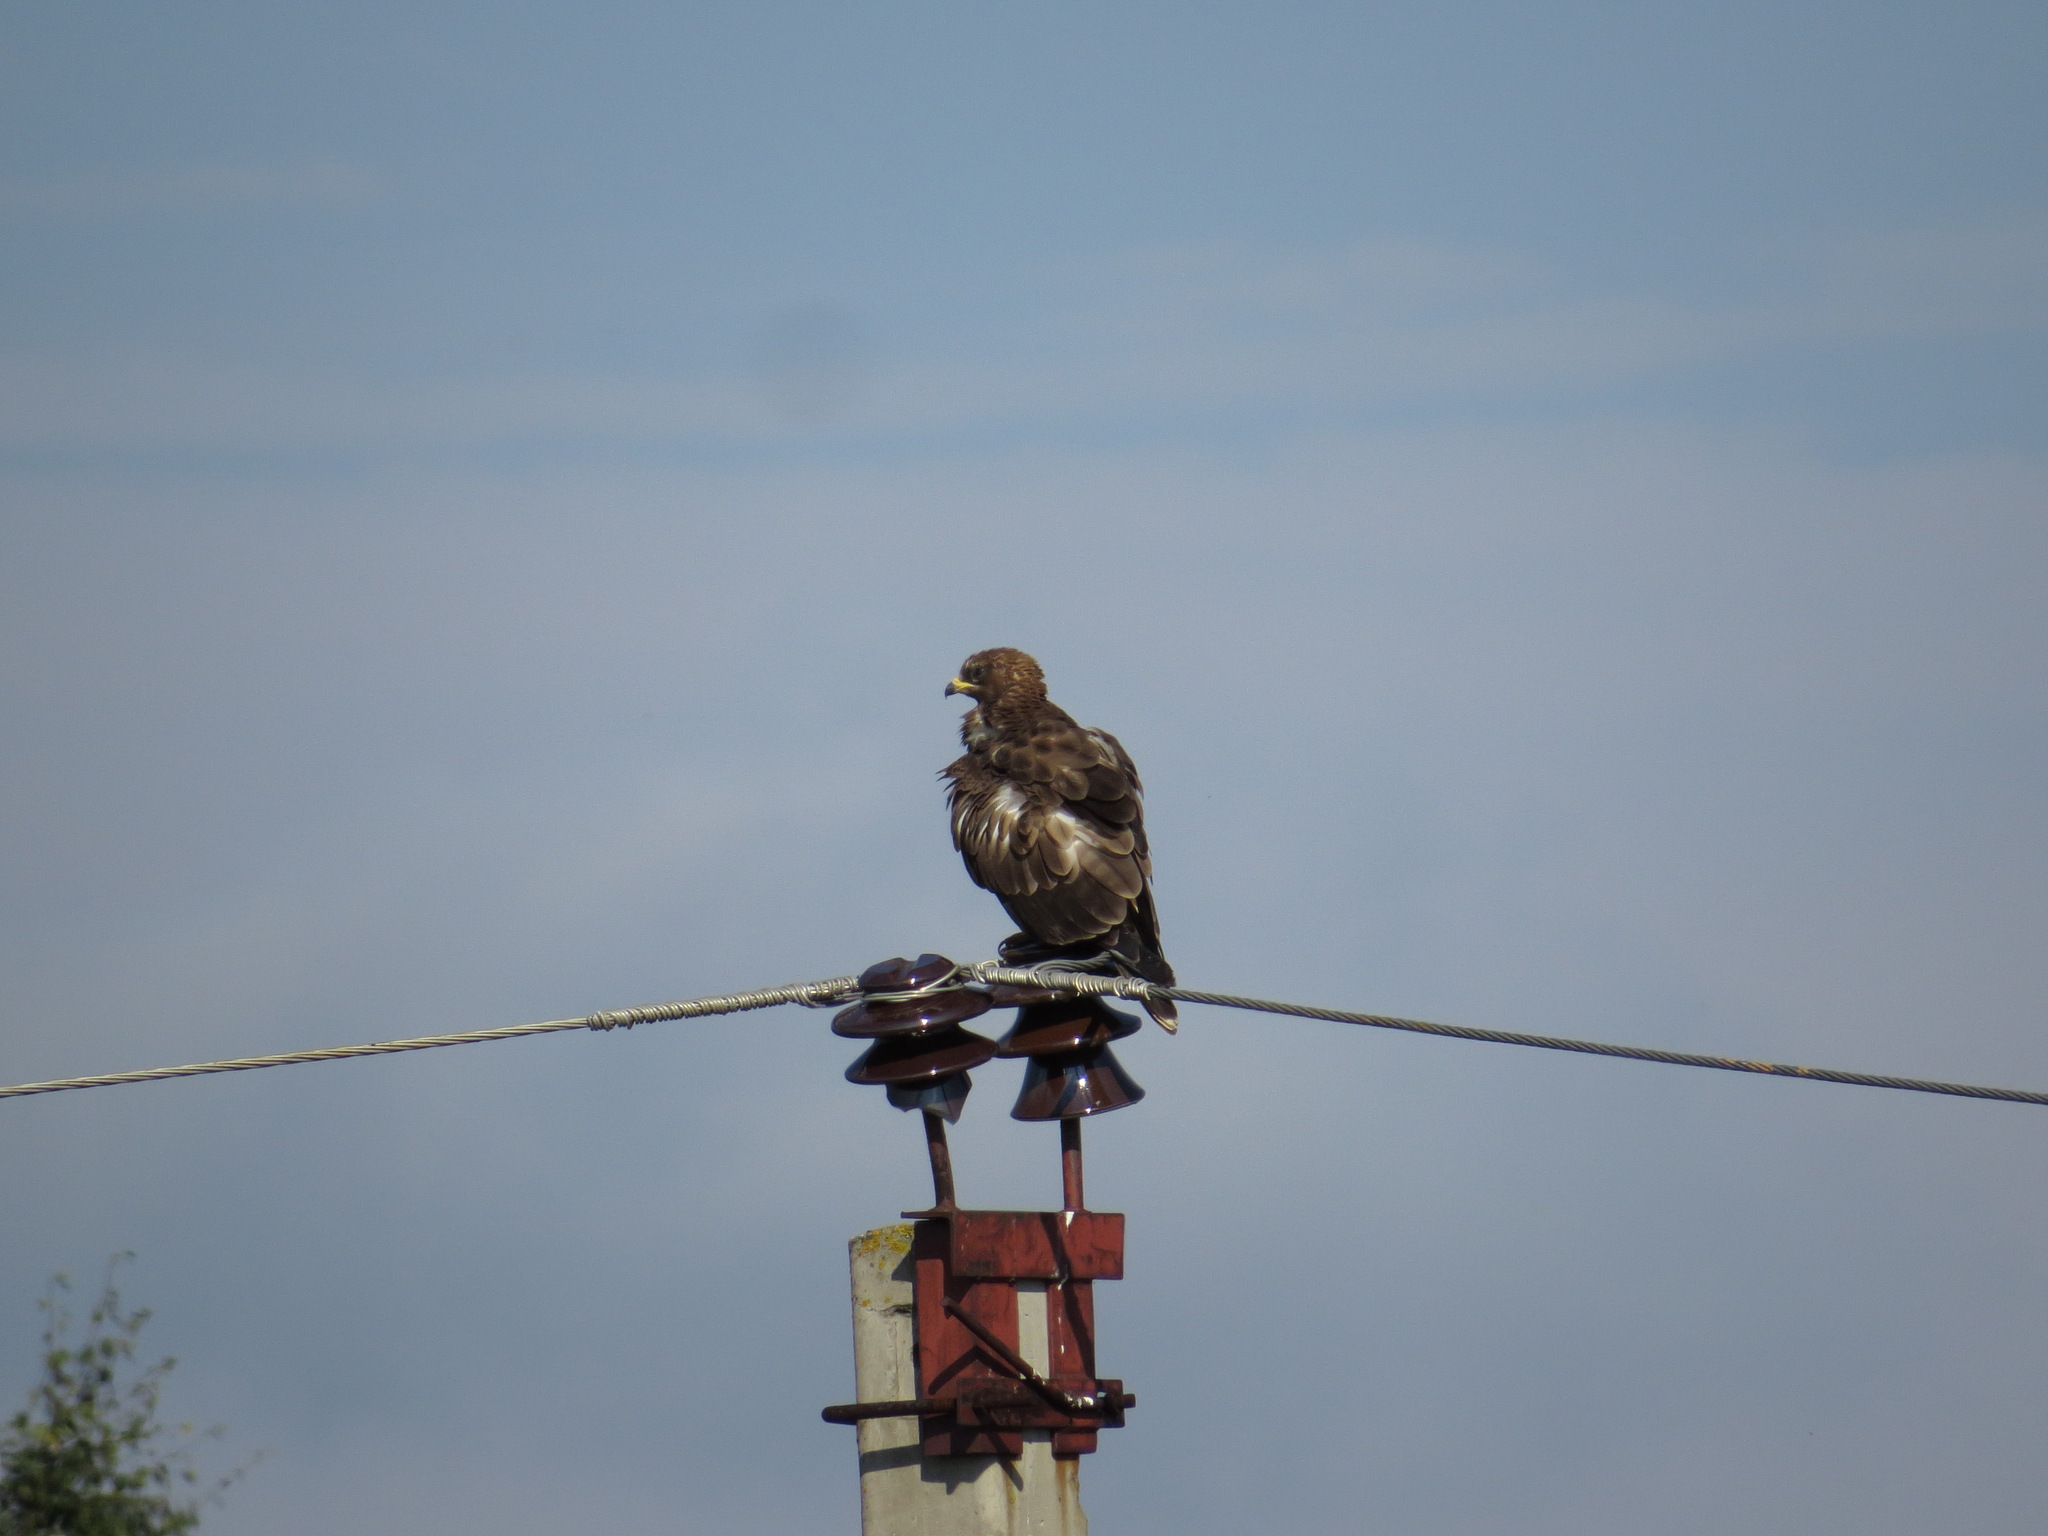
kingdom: Animalia
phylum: Chordata
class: Aves
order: Accipitriformes
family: Accipitridae
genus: Buteo
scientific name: Buteo buteo
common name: Common buzzard
